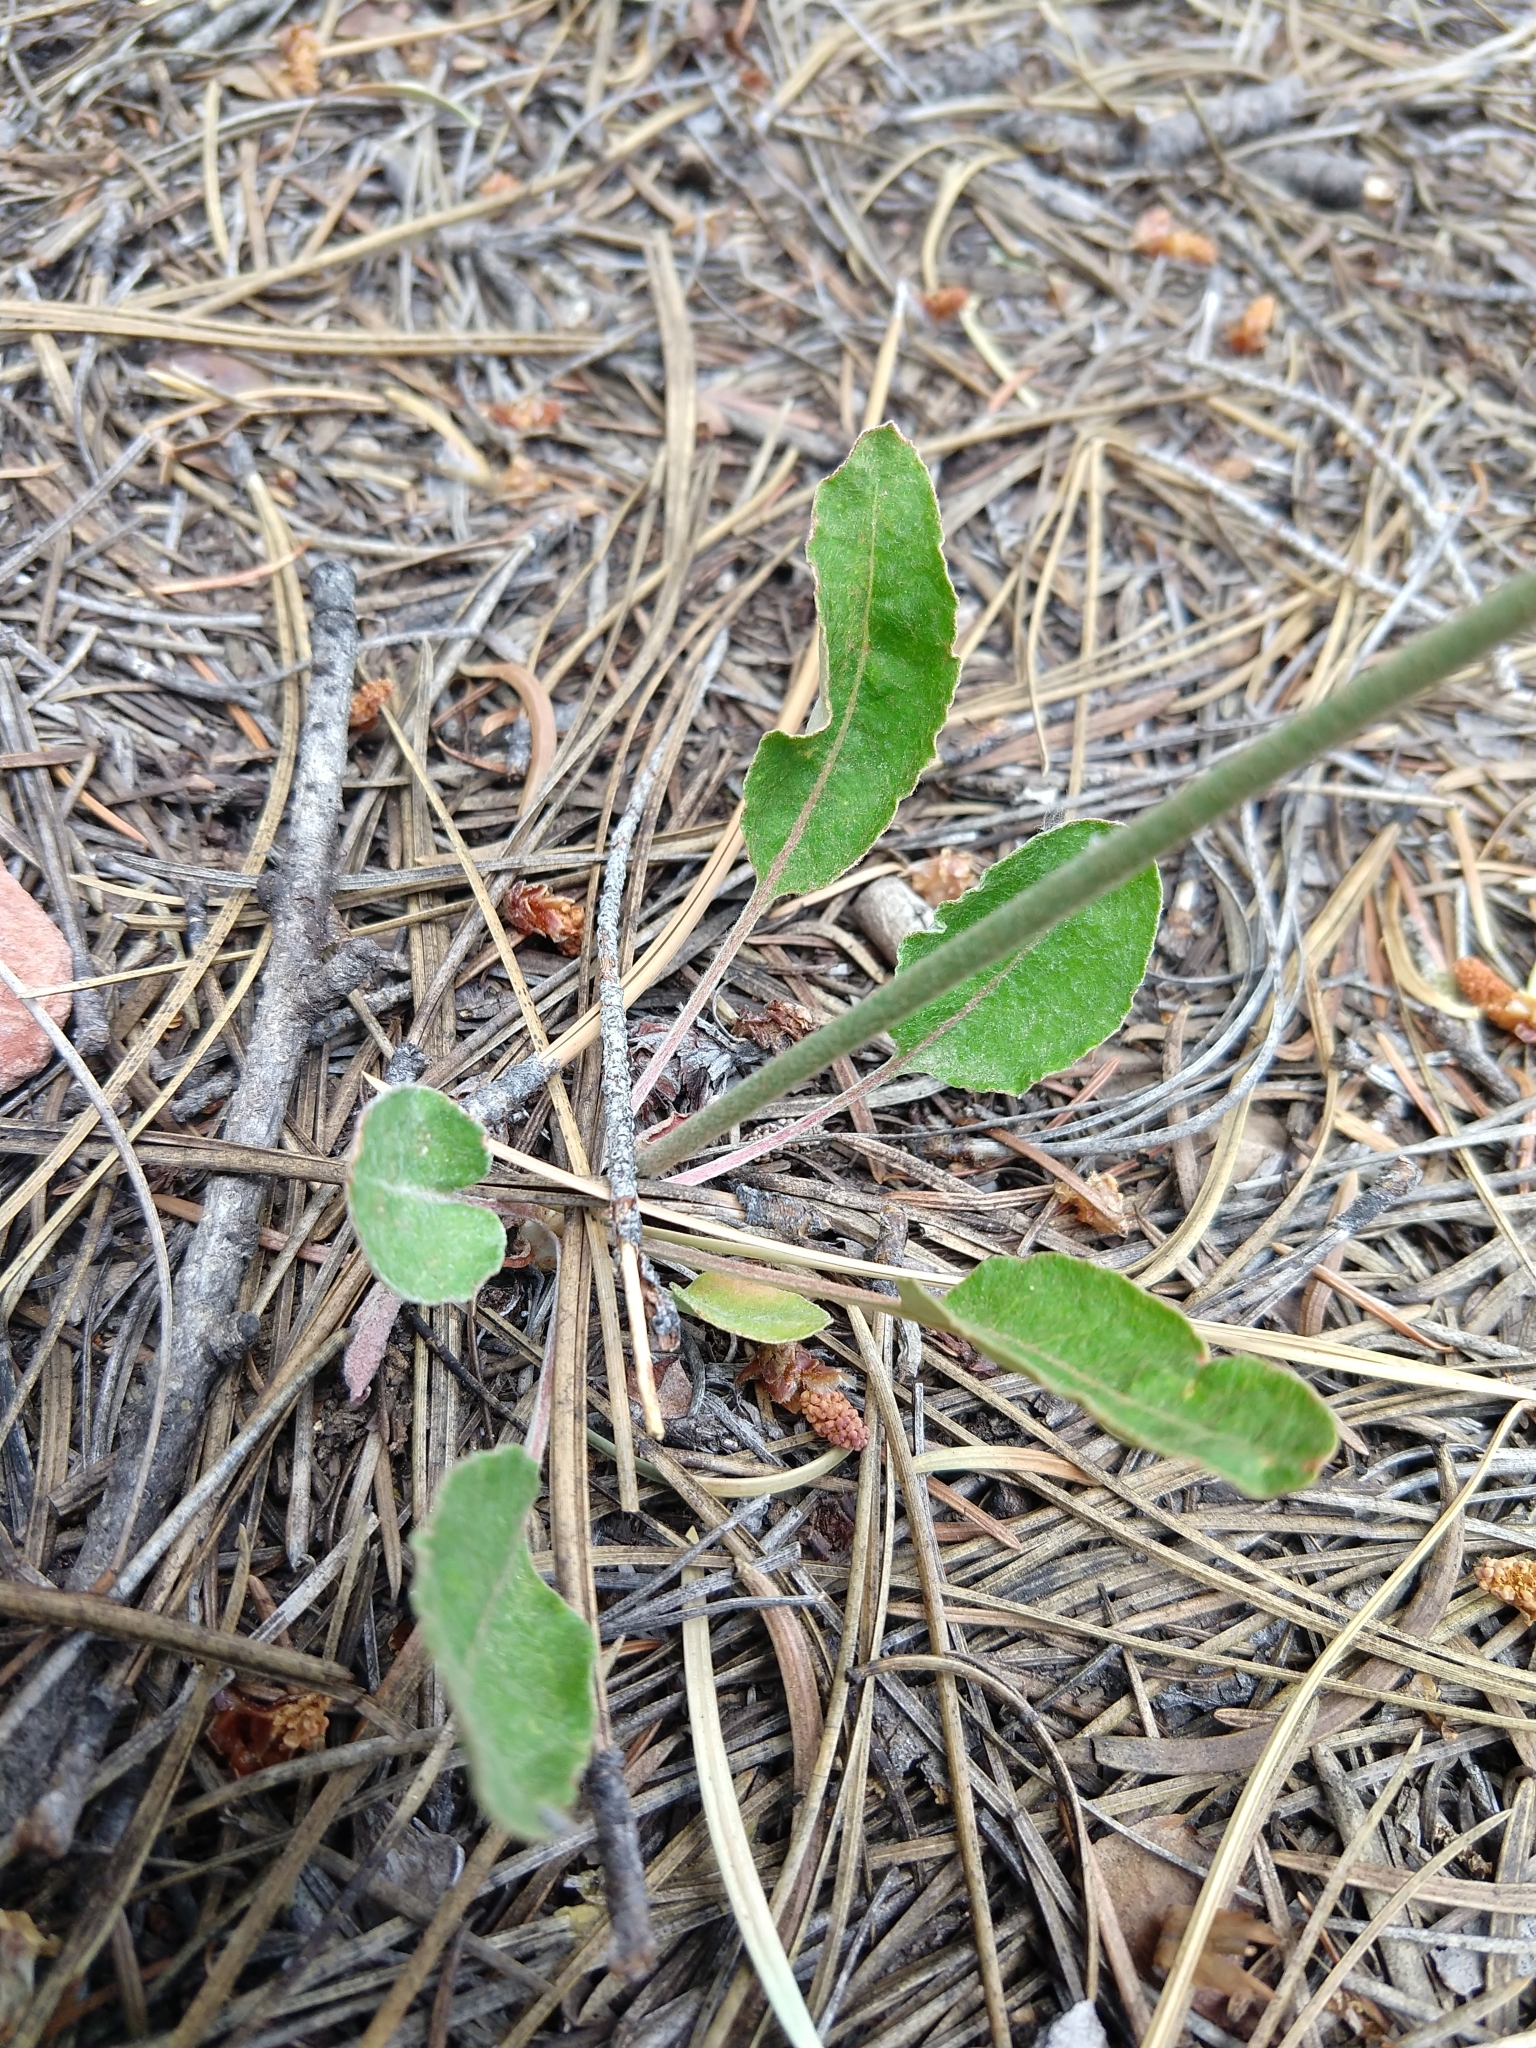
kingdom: Plantae
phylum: Tracheophyta
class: Magnoliopsida
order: Caryophyllales
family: Polygonaceae
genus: Eriogonum
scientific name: Eriogonum racemosum
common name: Redroot wild buckwheat
